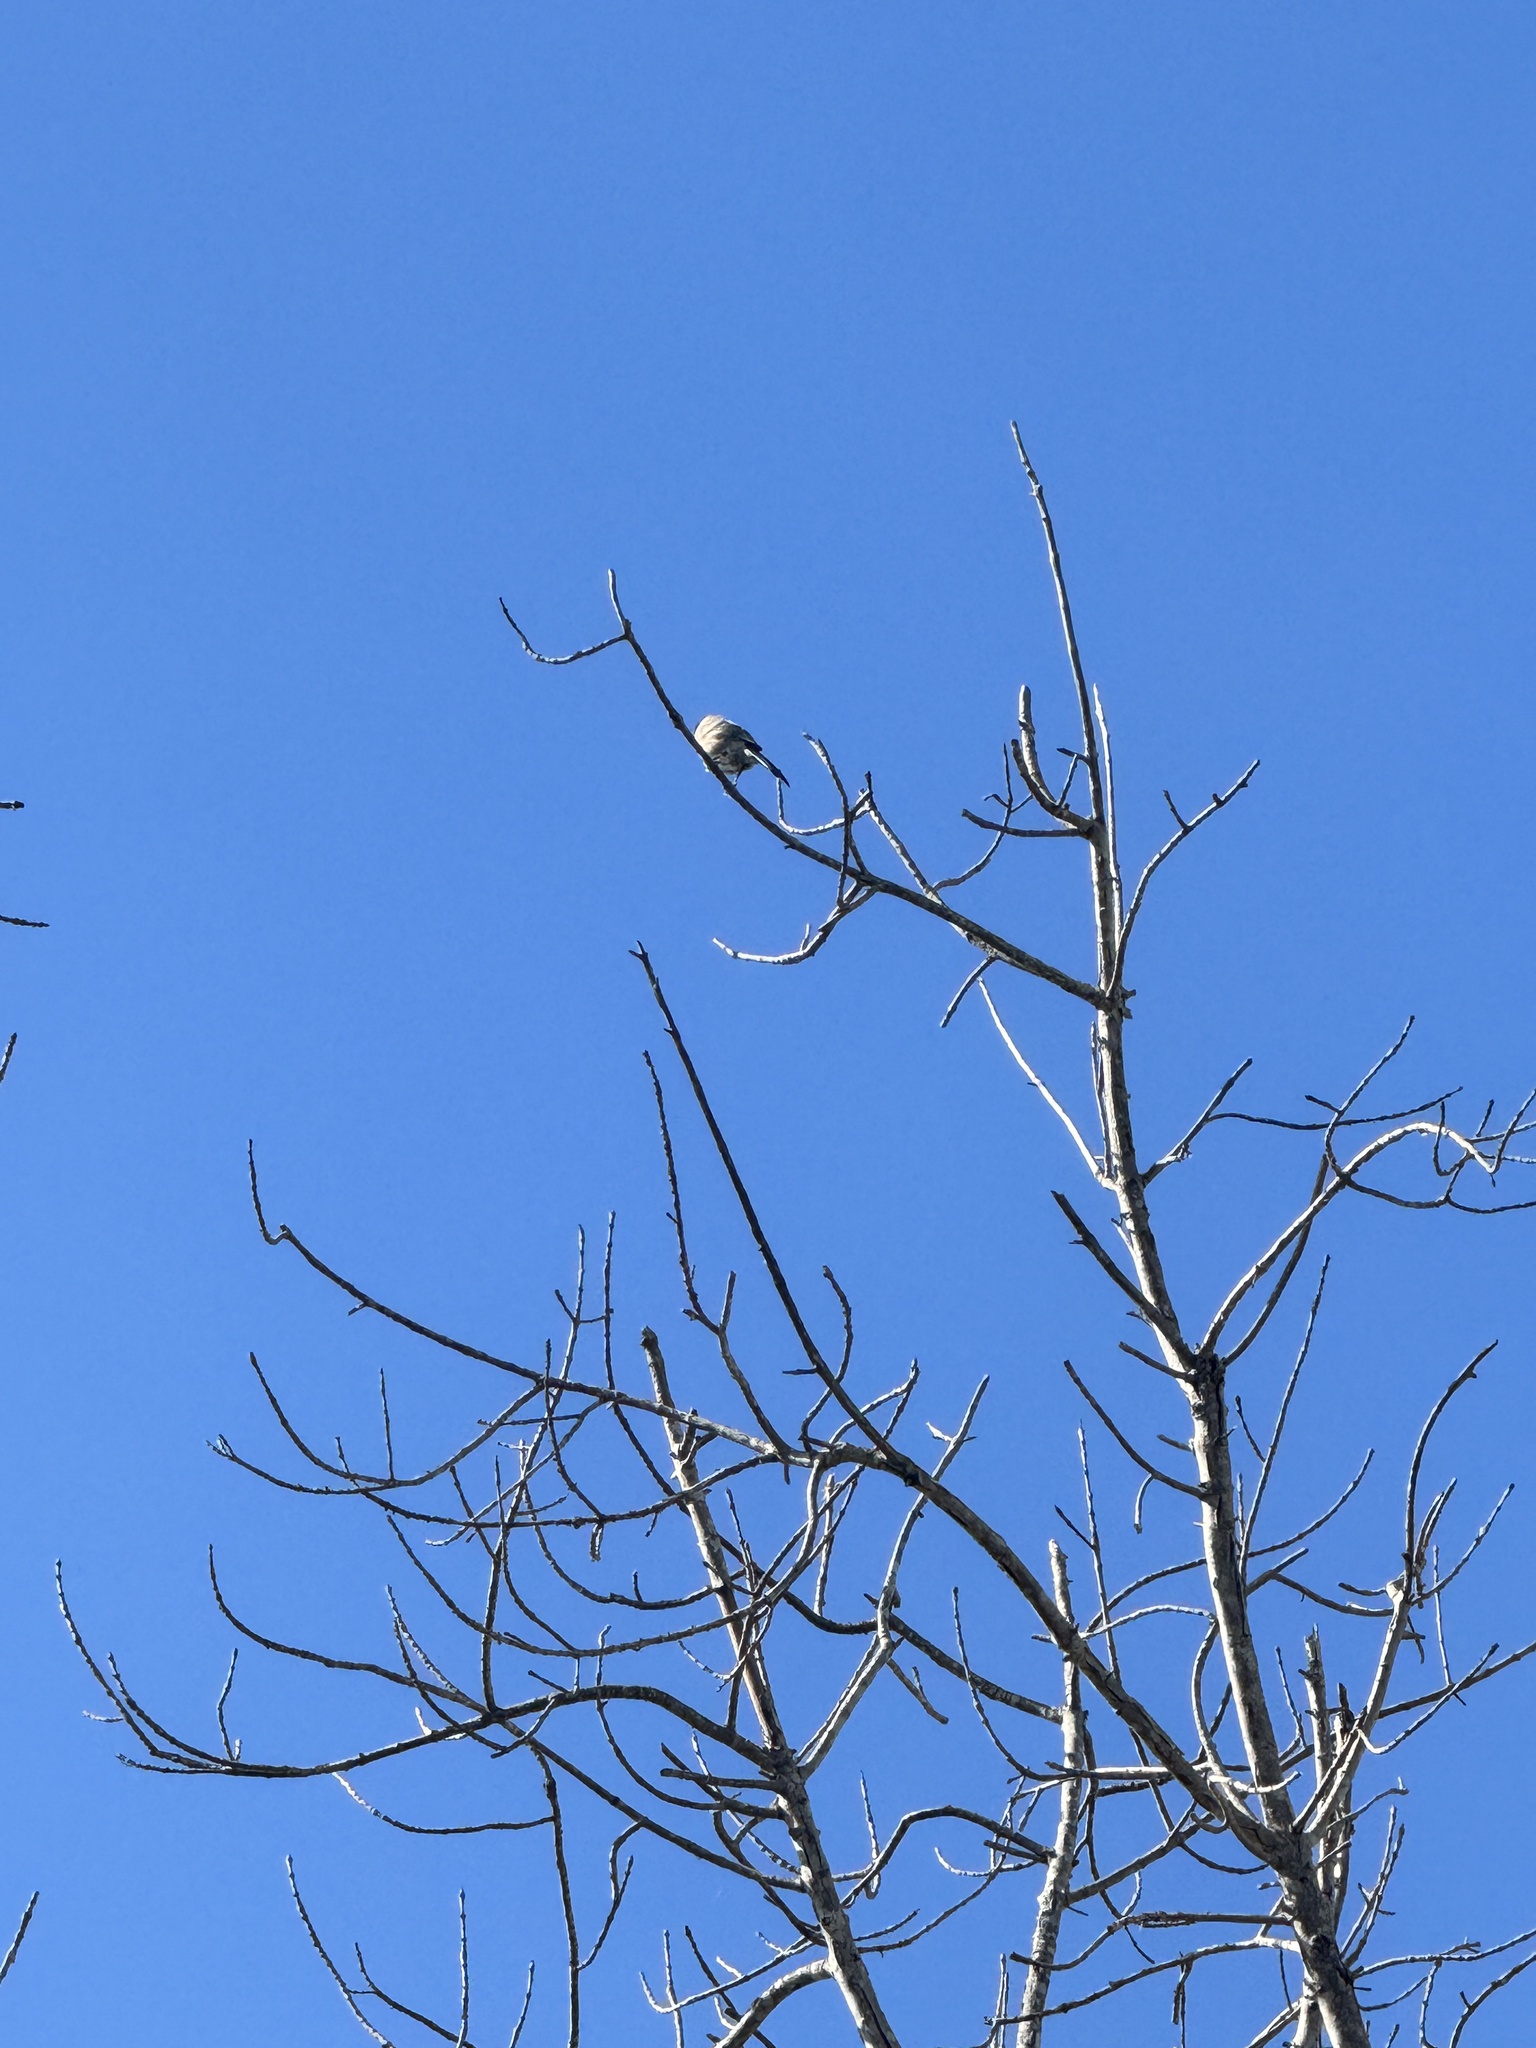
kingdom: Animalia
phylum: Chordata
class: Aves
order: Passeriformes
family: Corvidae
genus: Aphelocoma
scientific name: Aphelocoma californica
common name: California scrub-jay
